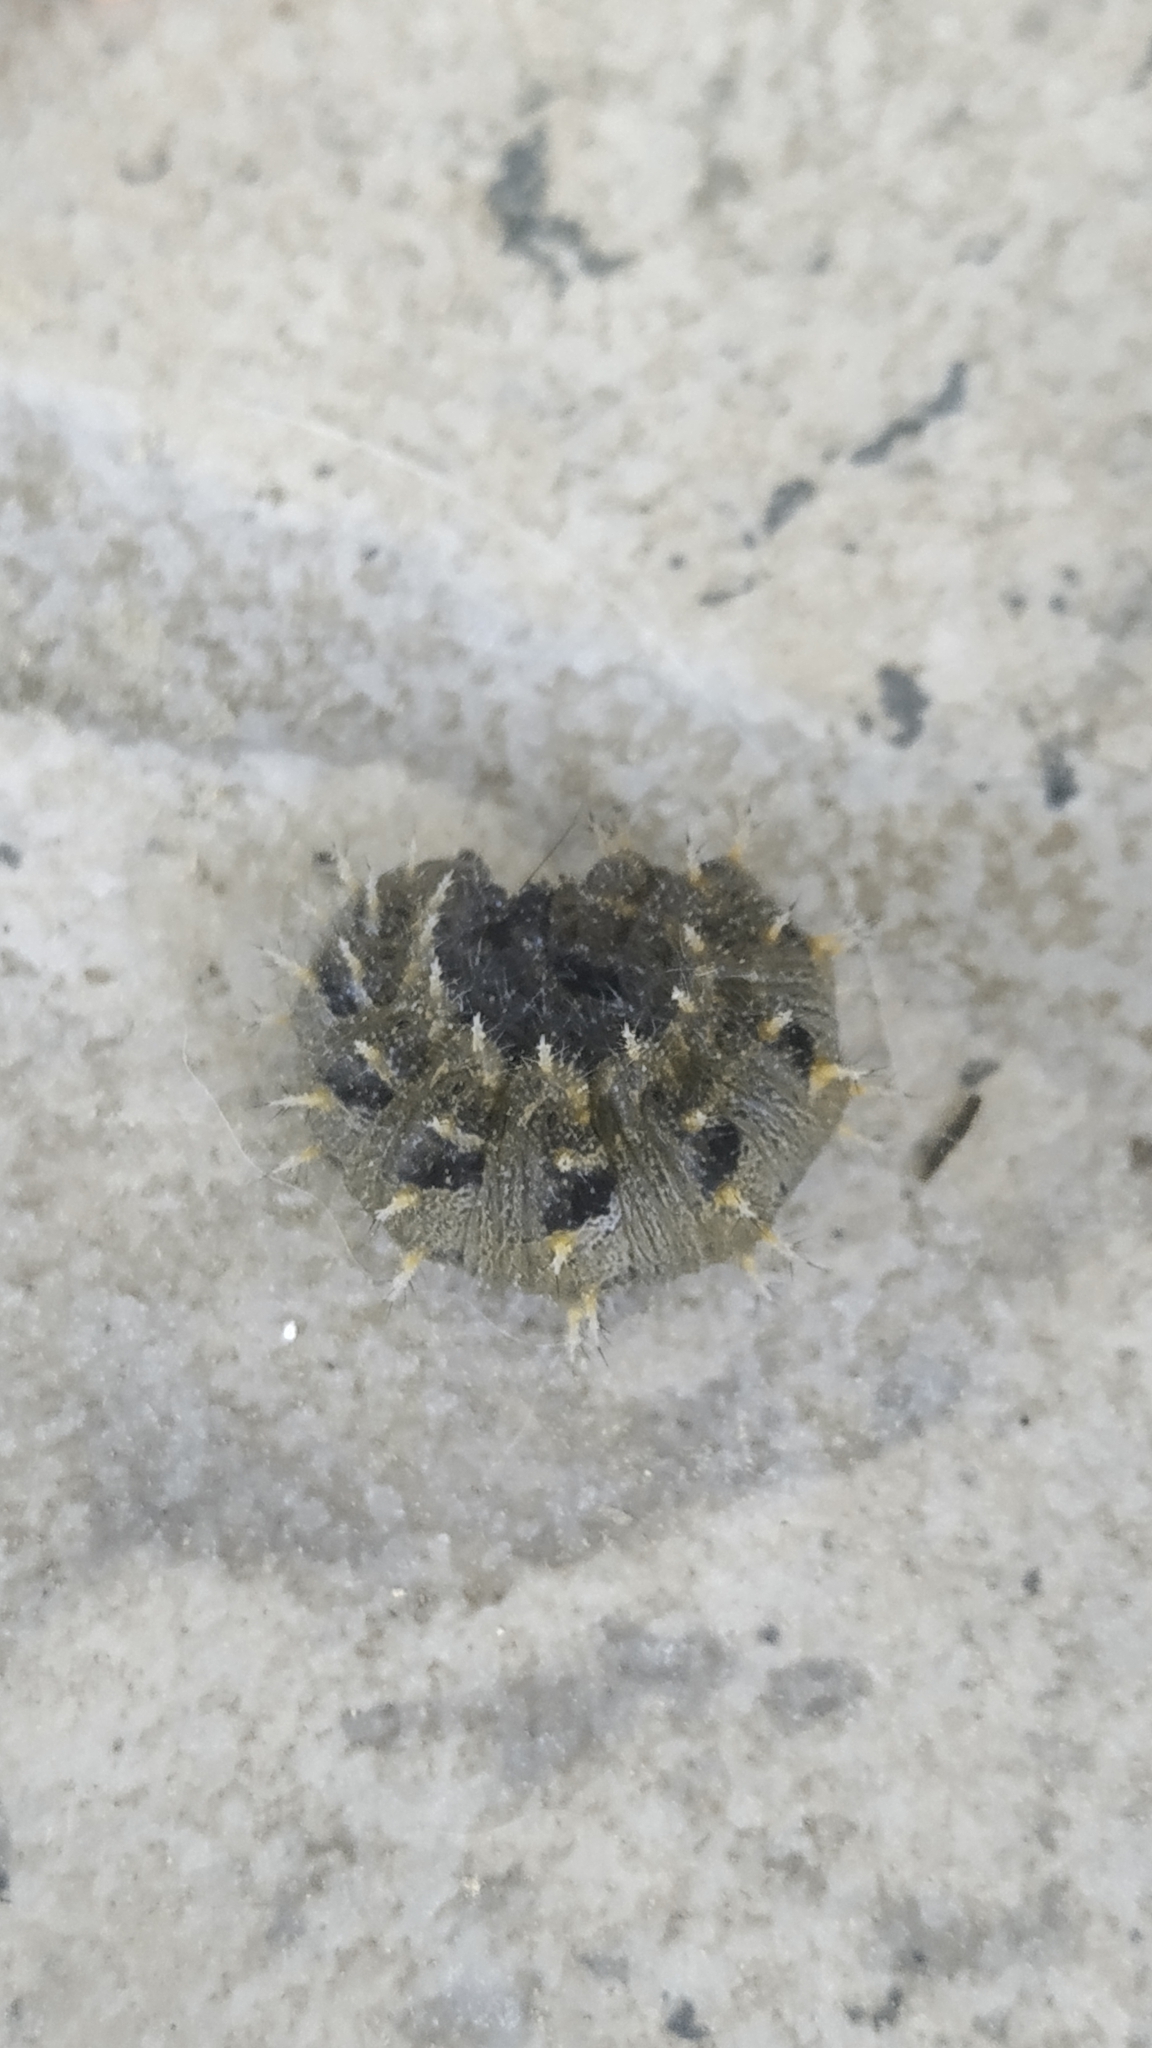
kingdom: Animalia
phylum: Arthropoda
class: Insecta
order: Lepidoptera
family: Nymphalidae
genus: Vanessa
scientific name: Vanessa atalanta
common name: Red admiral
